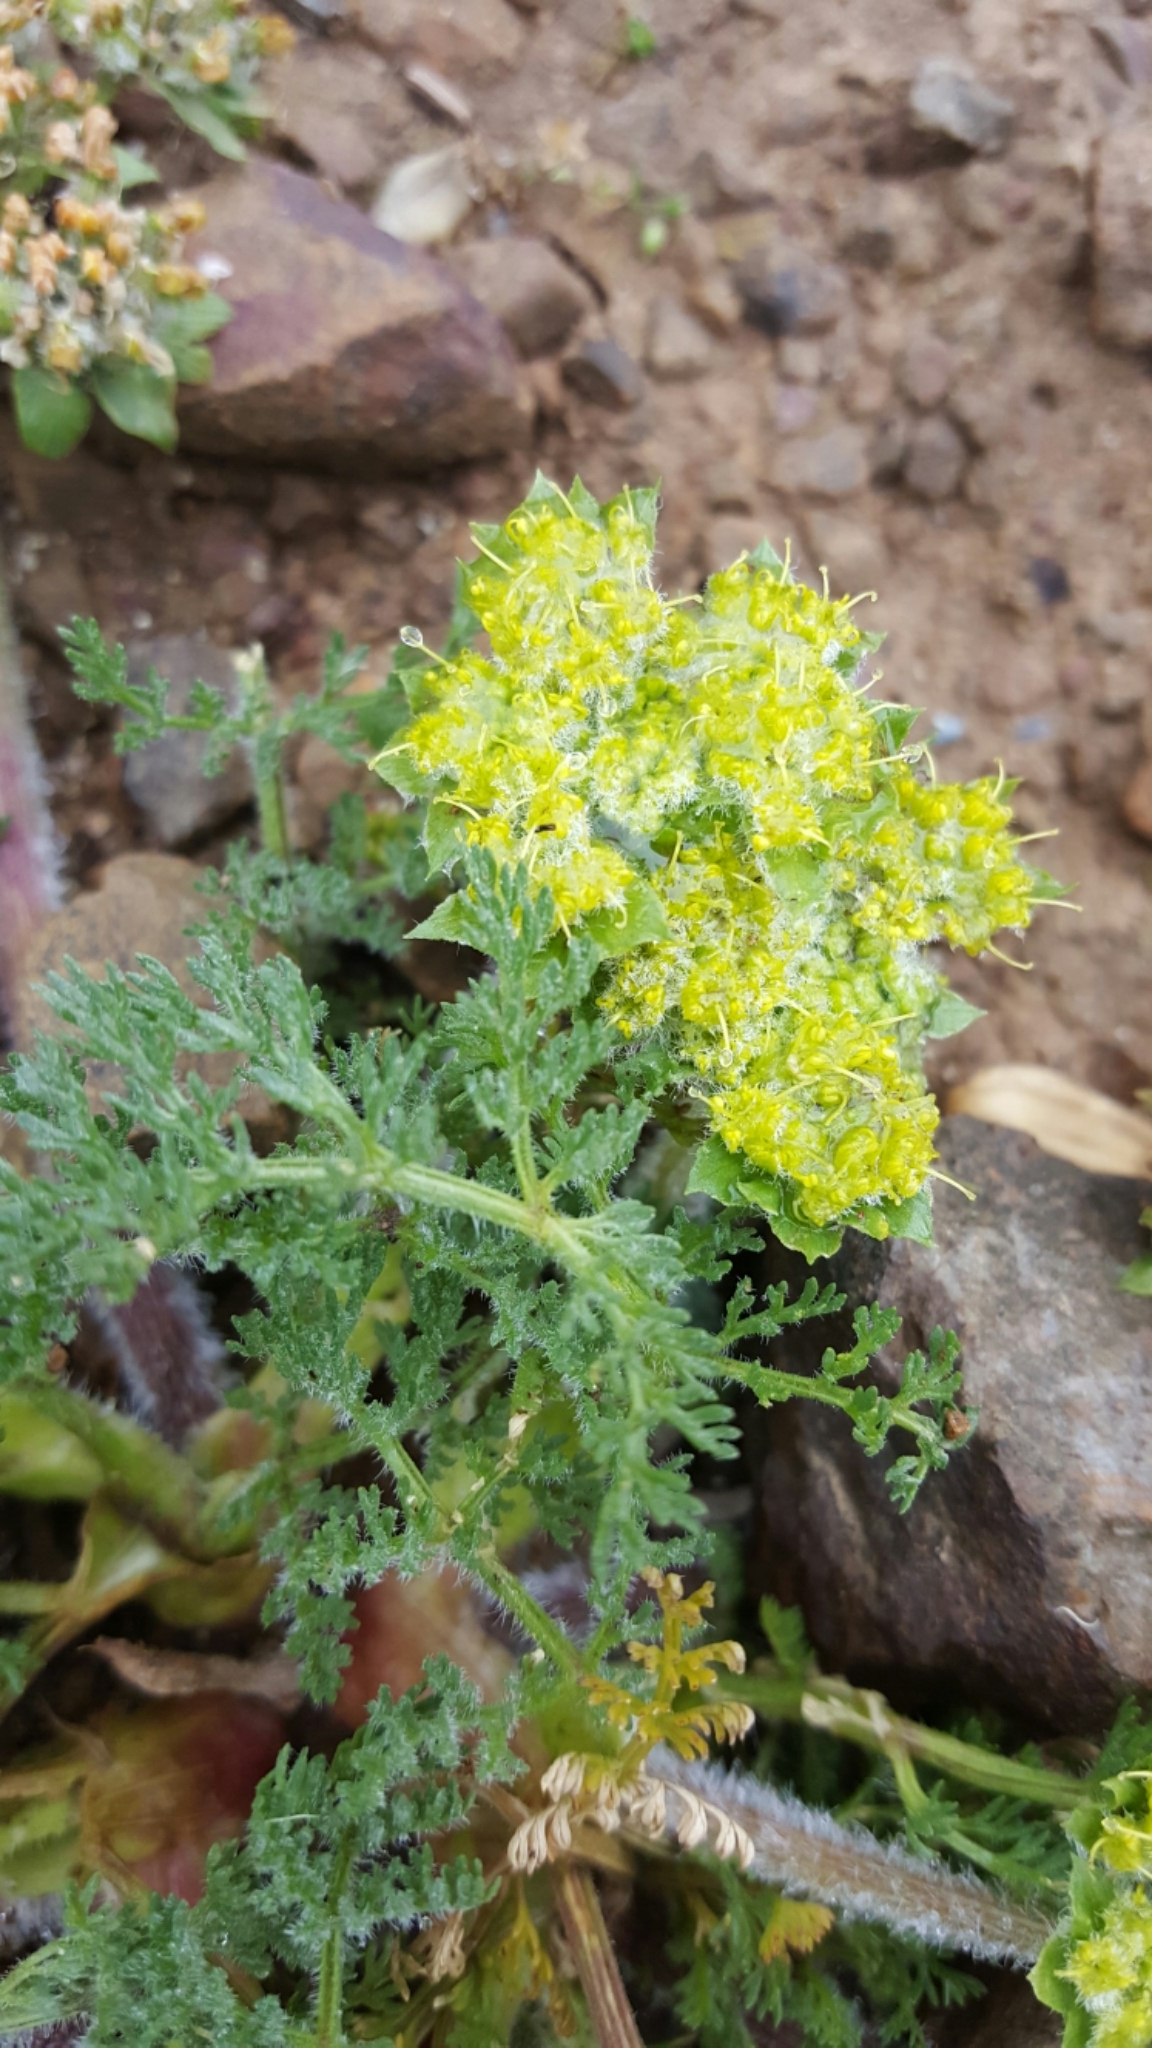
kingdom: Plantae
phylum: Tracheophyta
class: Magnoliopsida
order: Apiales
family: Apiaceae
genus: Lomatium
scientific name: Lomatium dasycarpum
